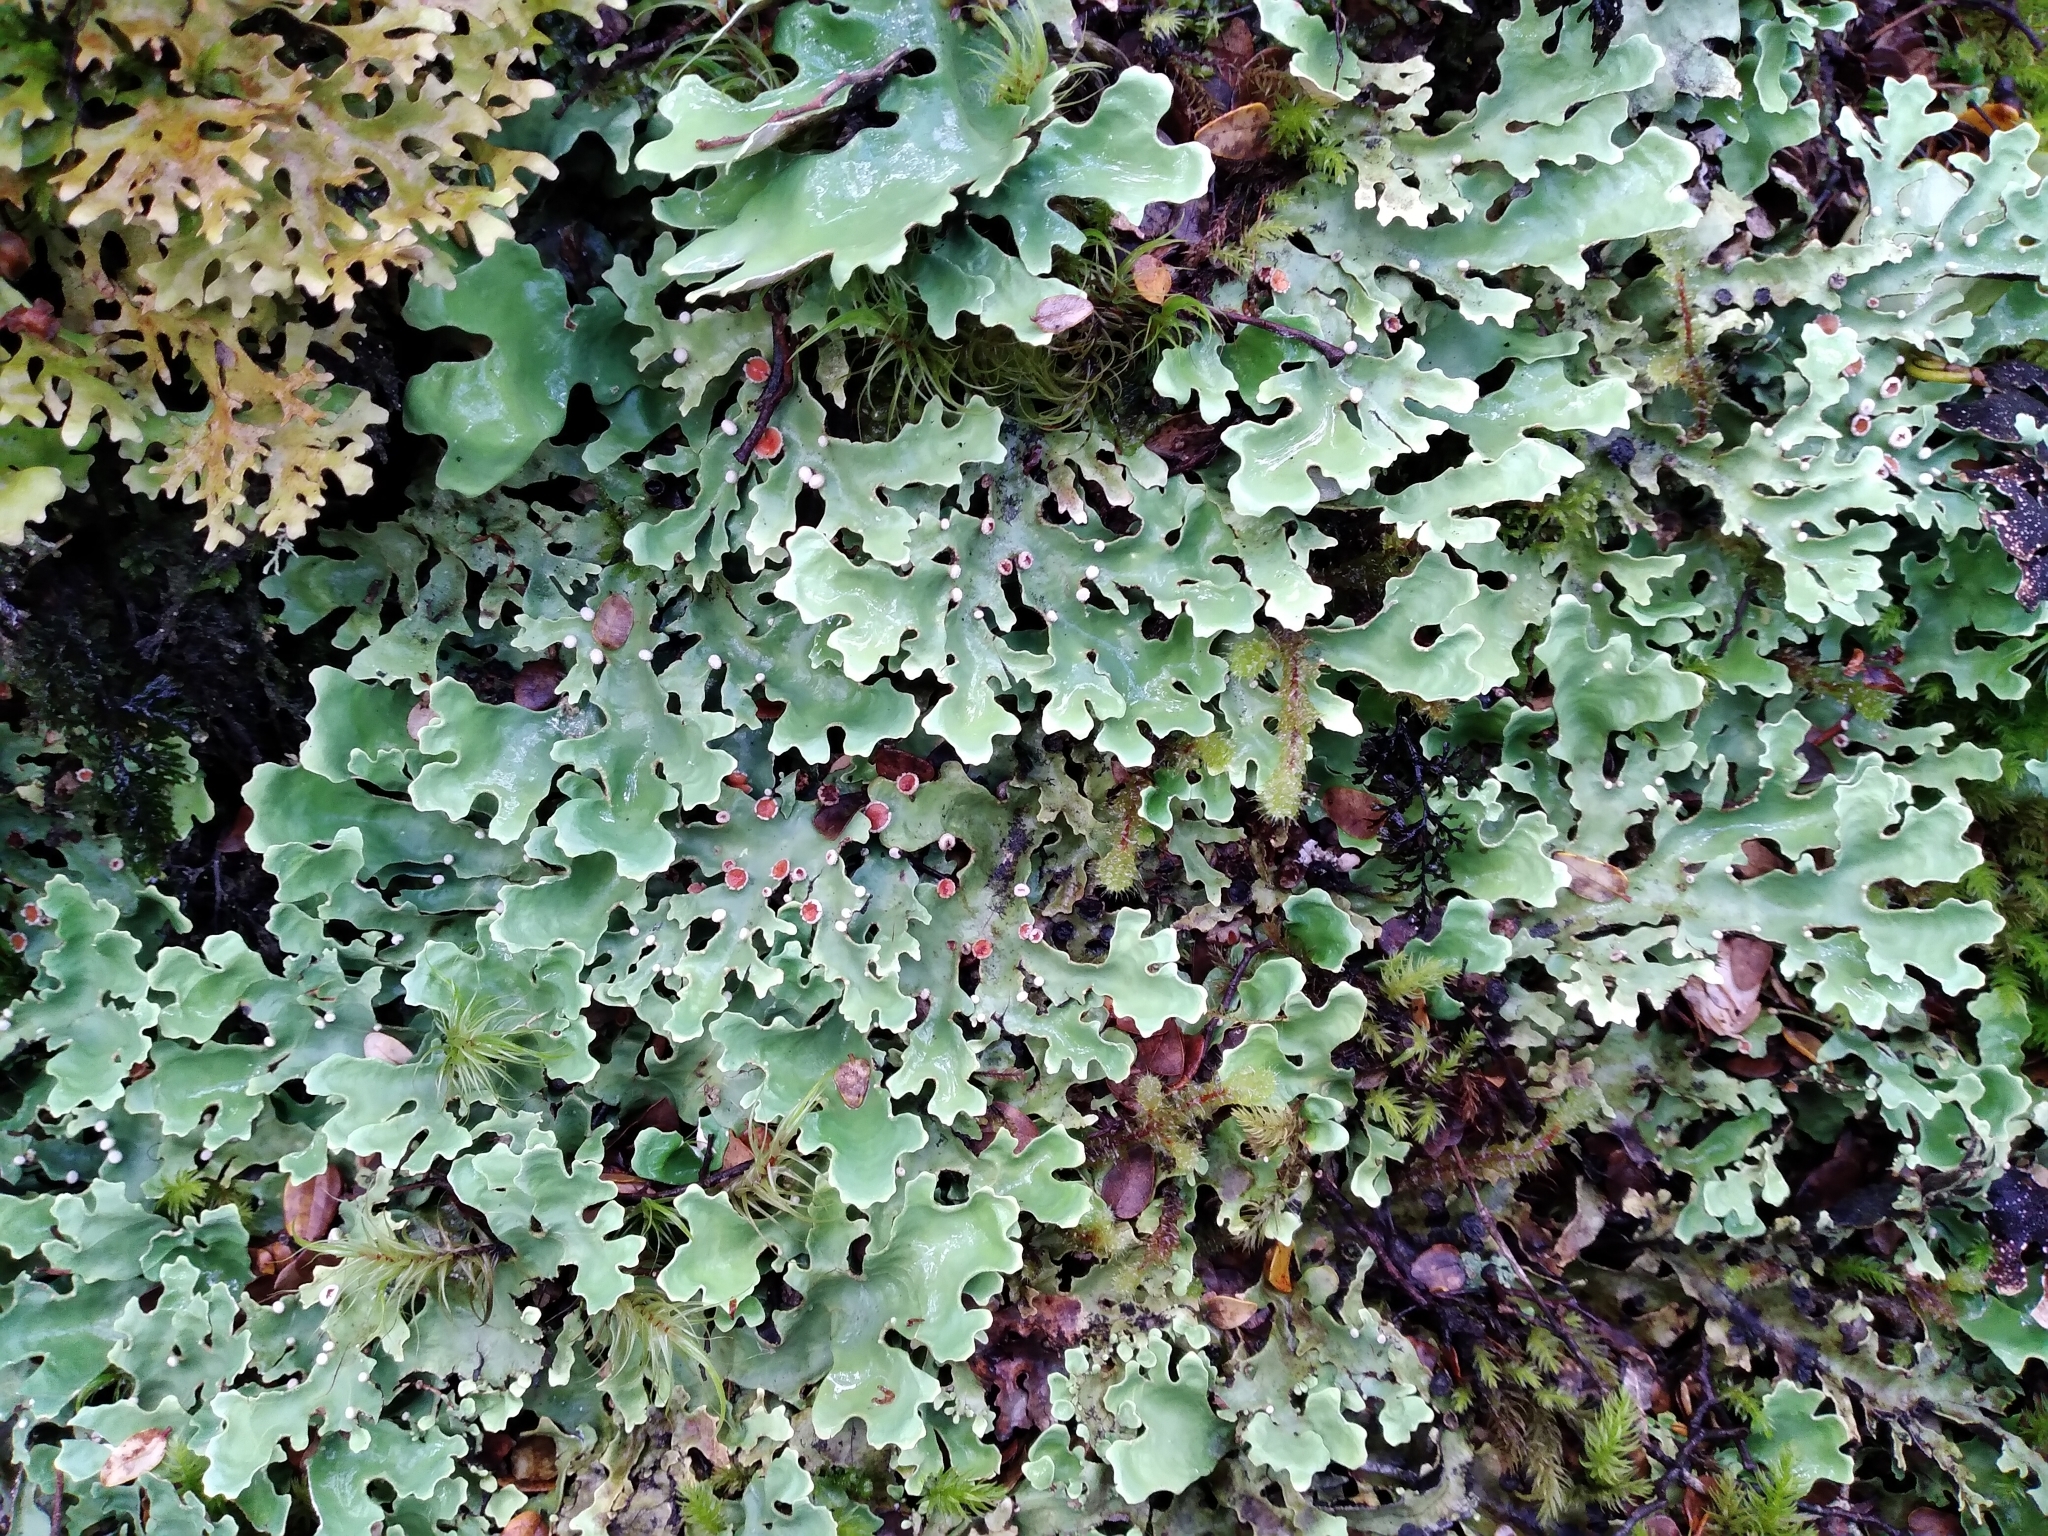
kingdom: Fungi
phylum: Ascomycota
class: Lecanoromycetes
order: Peltigerales
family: Lobariaceae
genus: Pseudocyphellaria
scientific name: Pseudocyphellaria homeophylla
